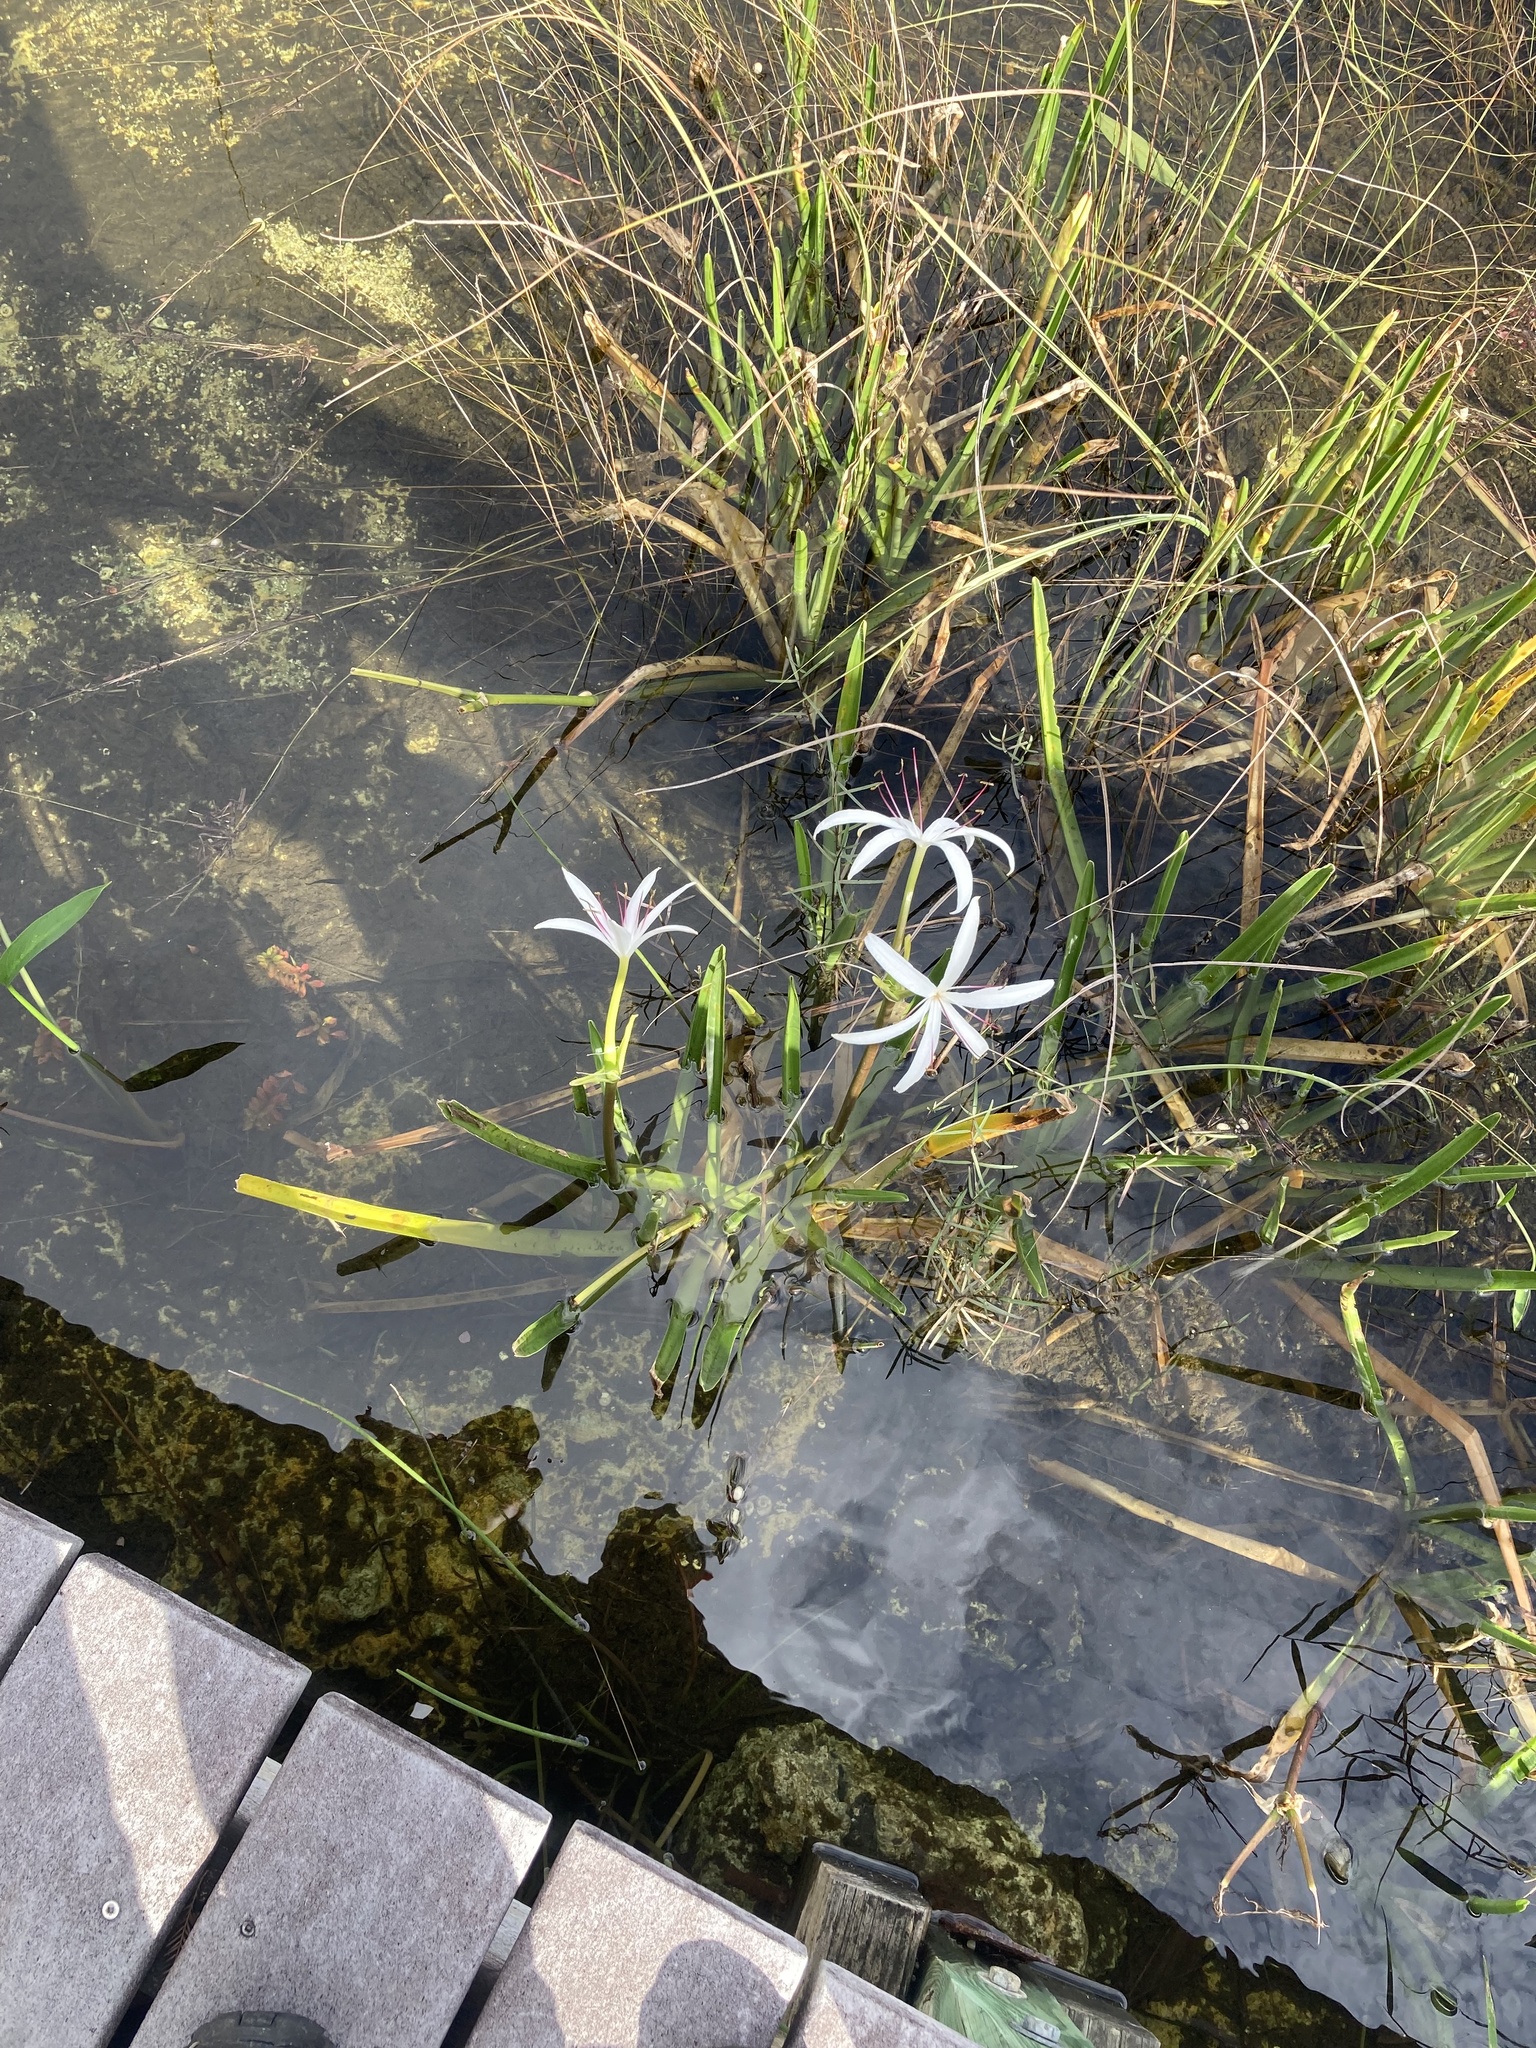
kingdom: Plantae
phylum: Tracheophyta
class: Liliopsida
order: Asparagales
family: Amaryllidaceae
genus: Crinum
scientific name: Crinum americanum
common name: Florida swamp-lily
